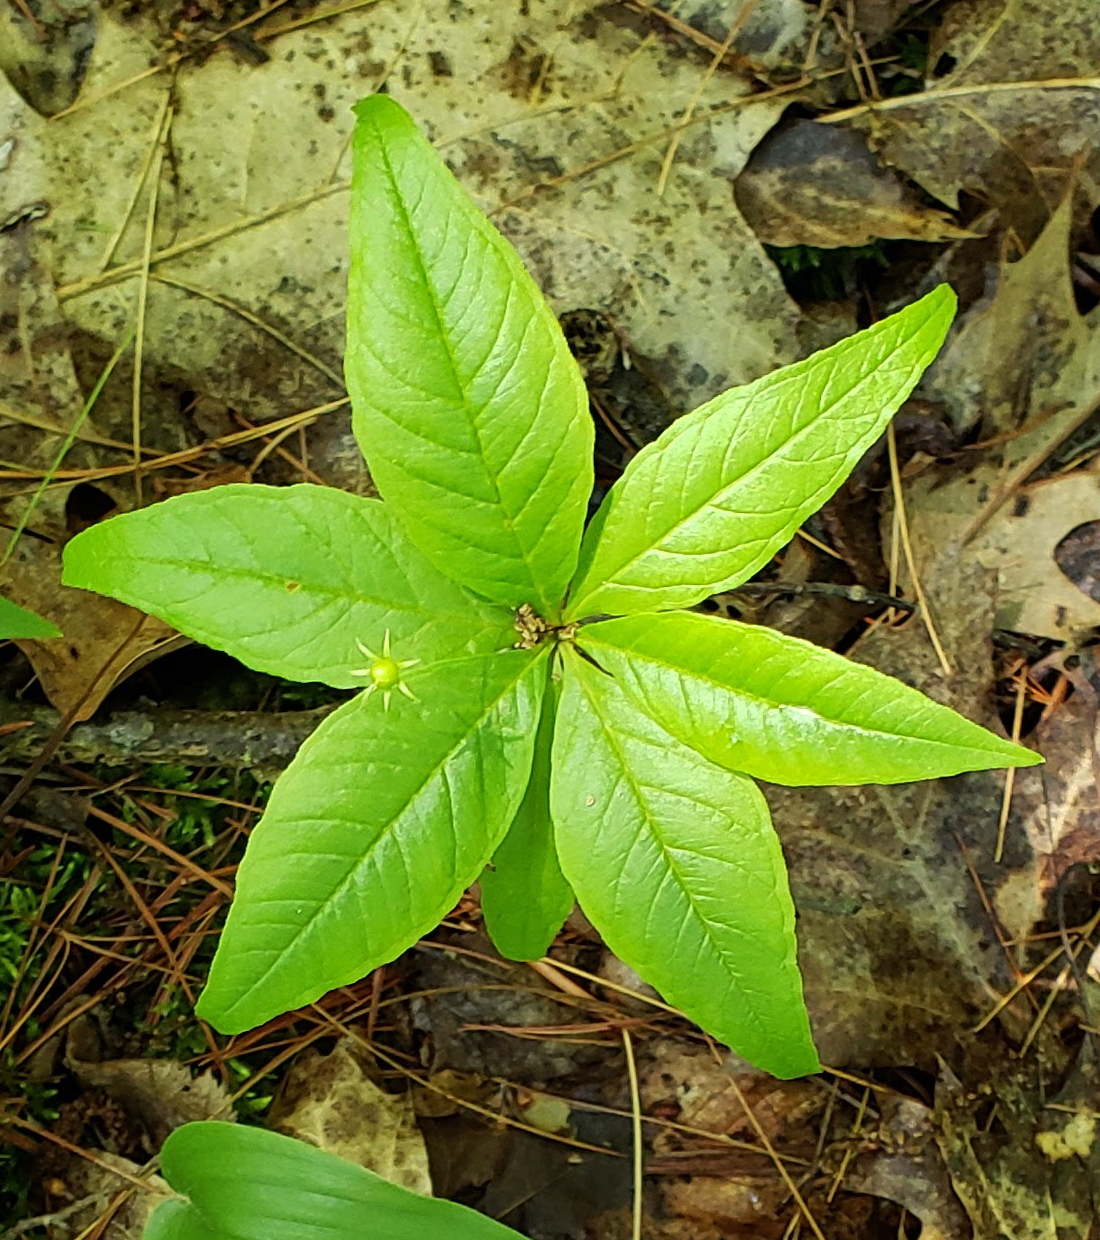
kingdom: Plantae
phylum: Tracheophyta
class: Magnoliopsida
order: Ericales
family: Primulaceae
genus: Lysimachia
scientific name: Lysimachia borealis
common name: American starflower
